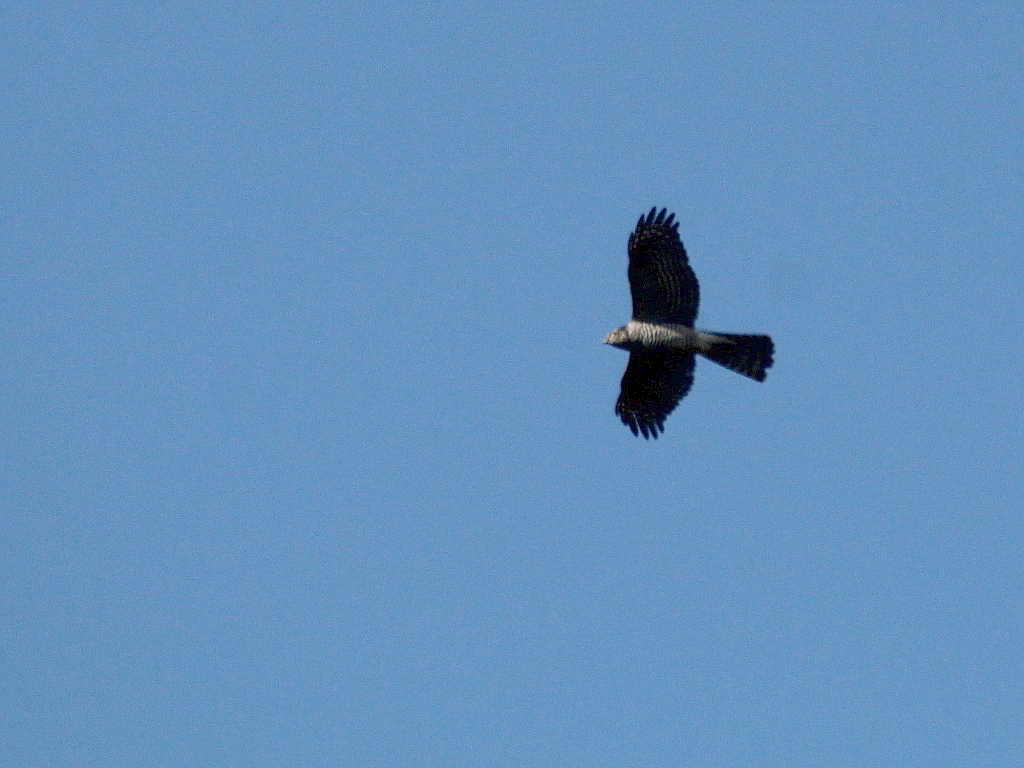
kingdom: Animalia
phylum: Chordata
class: Aves
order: Accipitriformes
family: Accipitridae
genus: Accipiter
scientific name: Accipiter nisus
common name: Eurasian sparrowhawk
